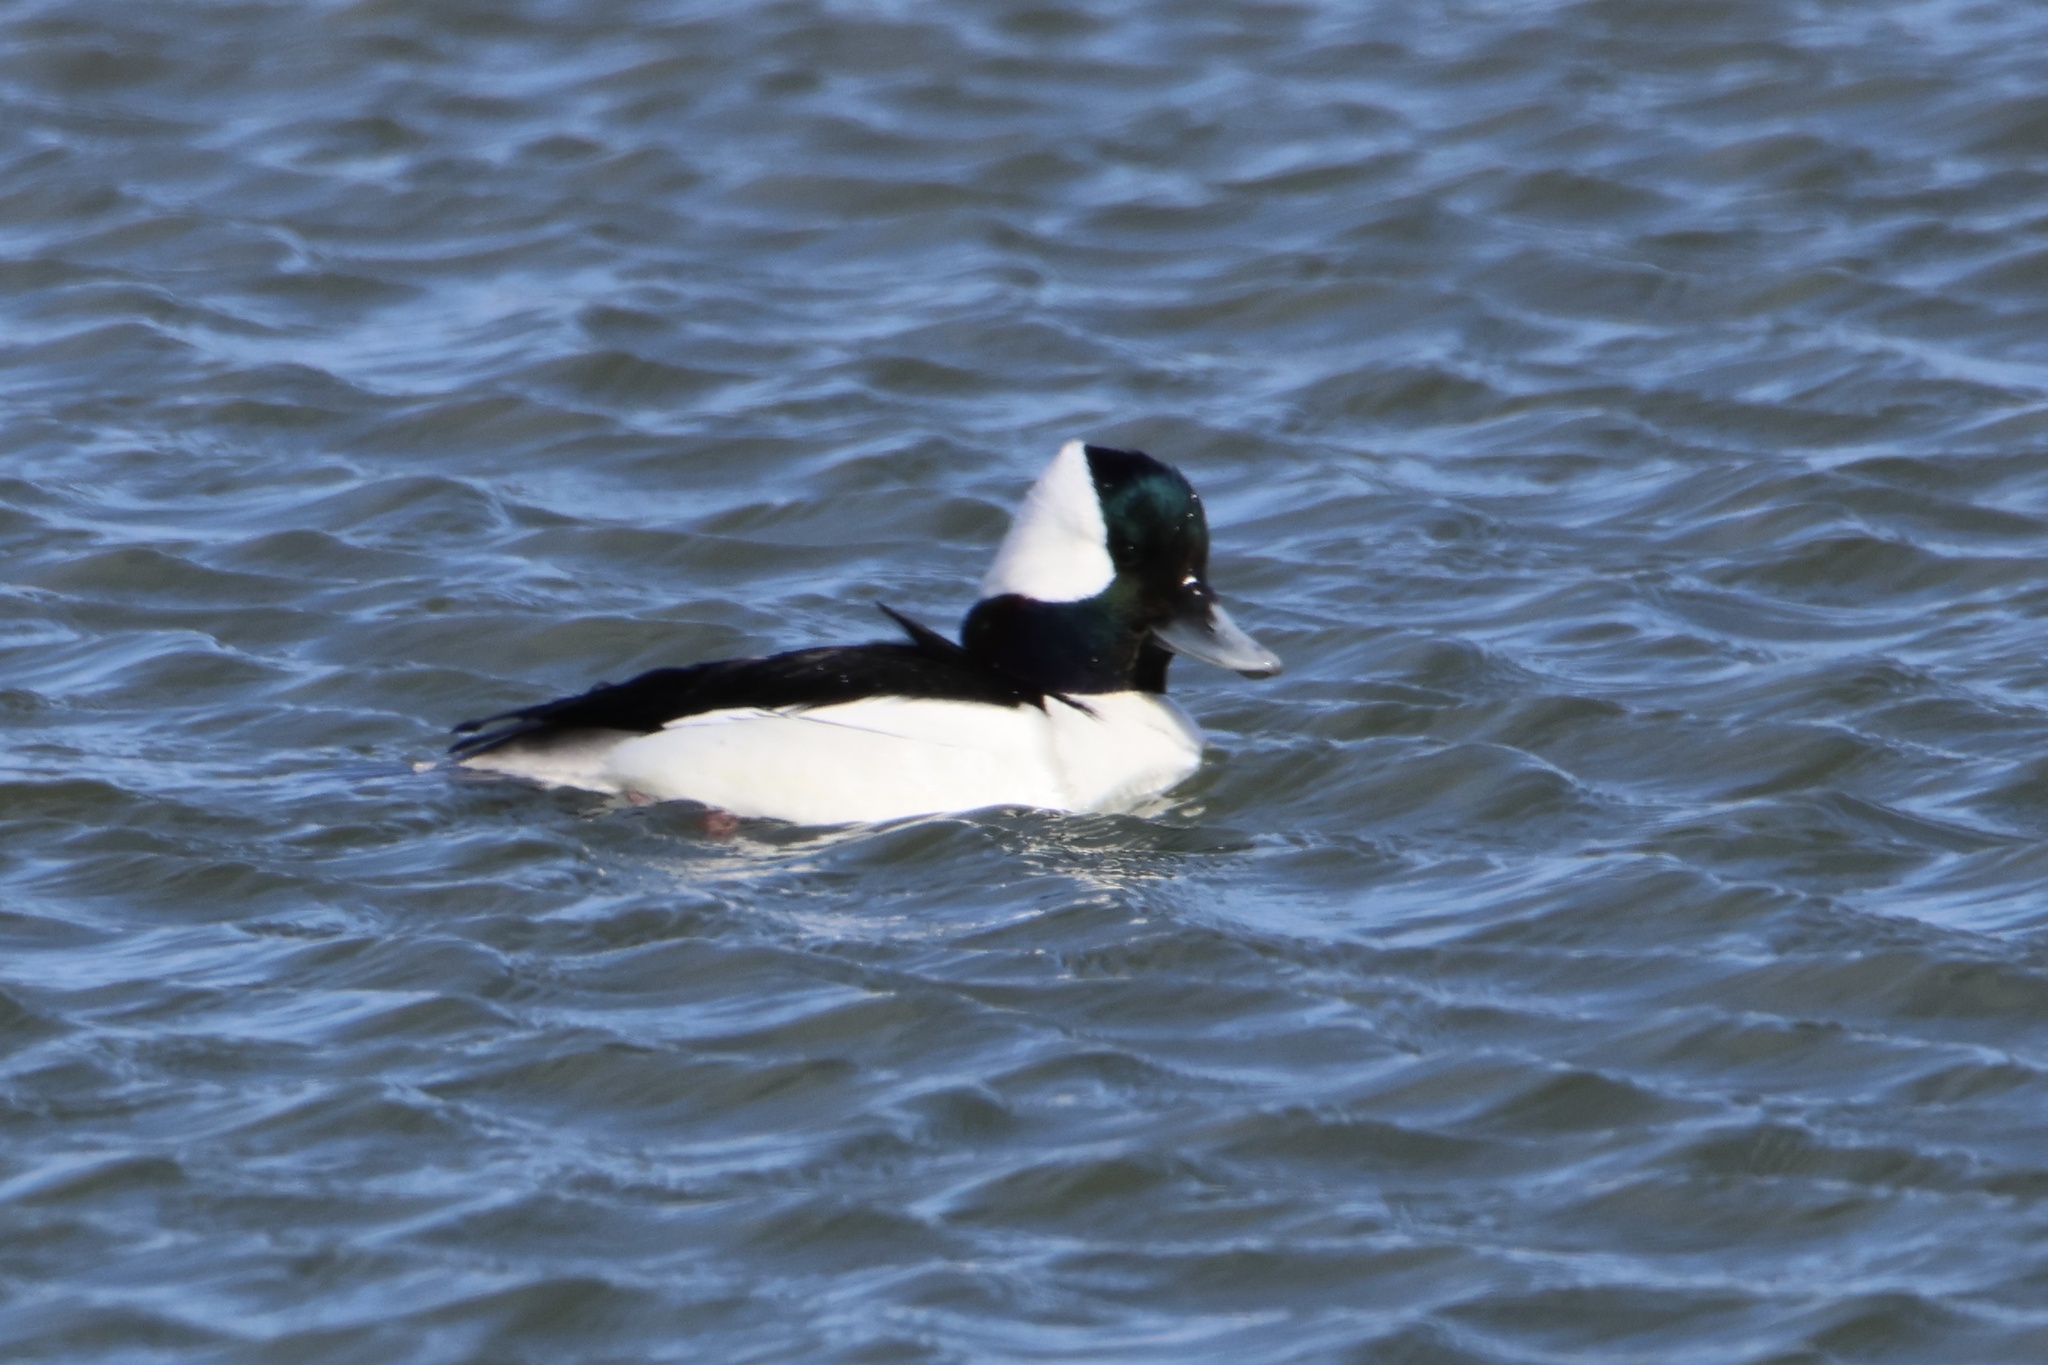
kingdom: Animalia
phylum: Chordata
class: Aves
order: Anseriformes
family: Anatidae
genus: Bucephala
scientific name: Bucephala albeola
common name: Bufflehead
